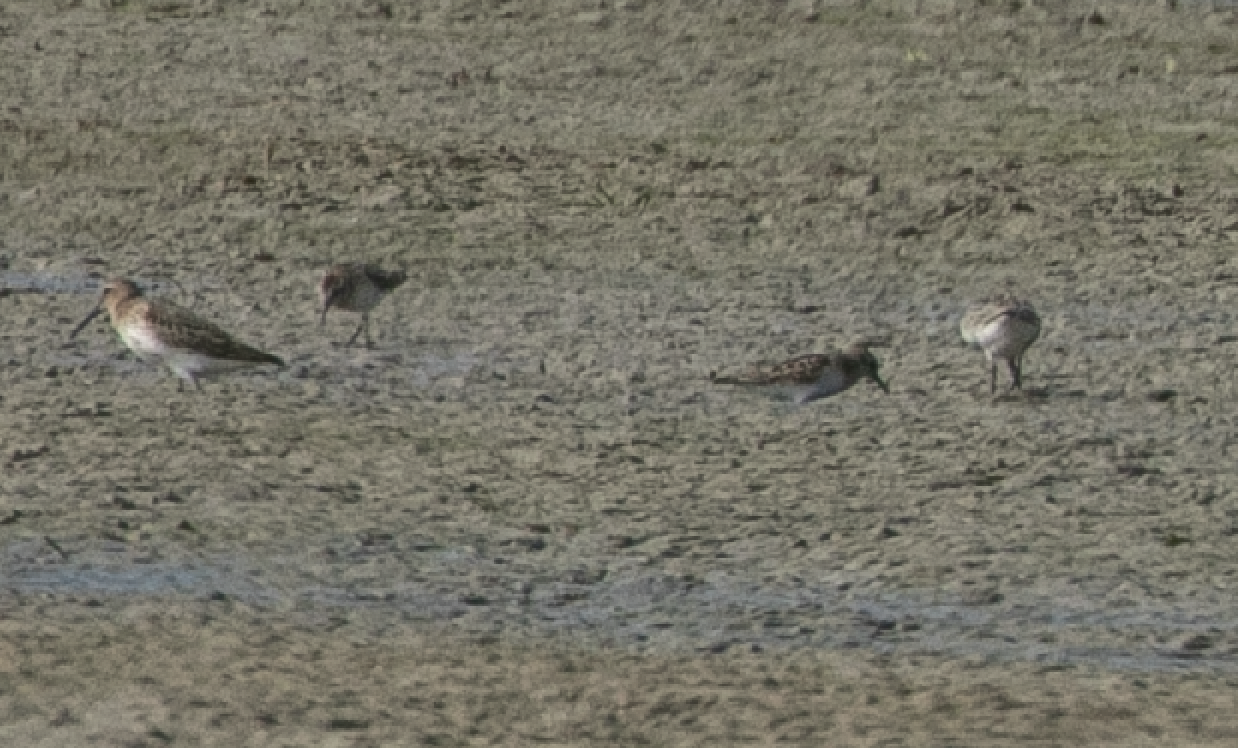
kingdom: Animalia
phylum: Chordata
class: Aves
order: Charadriiformes
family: Scolopacidae
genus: Calidris
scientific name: Calidris alpina
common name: Dunlin
